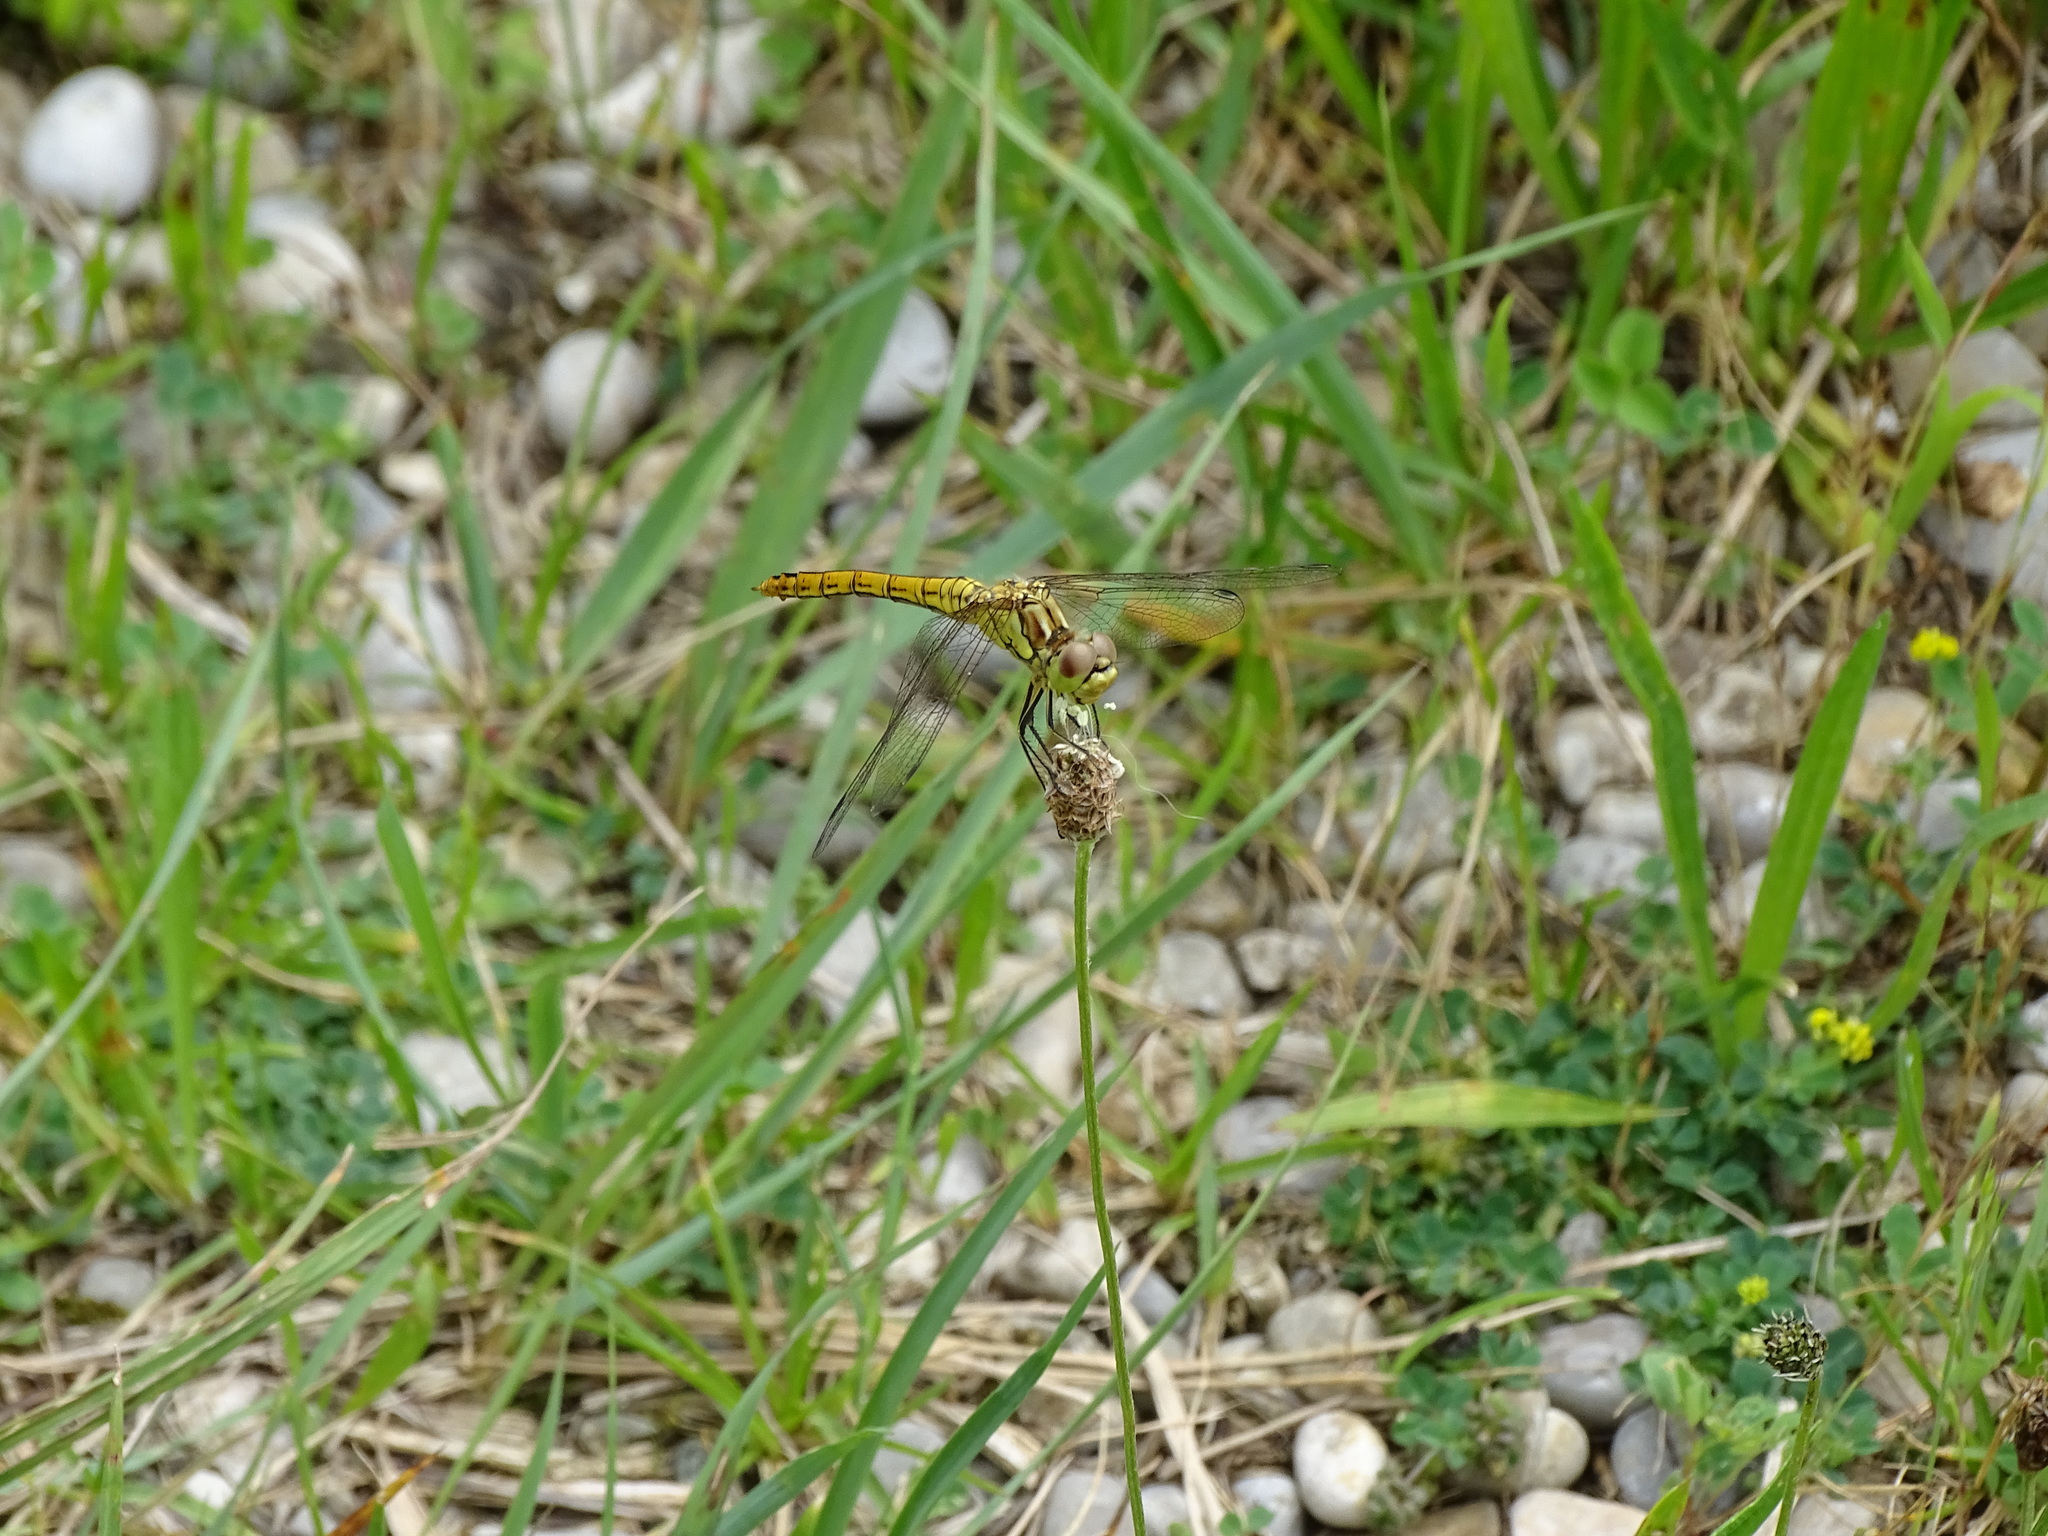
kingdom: Animalia
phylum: Arthropoda
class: Insecta
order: Odonata
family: Libellulidae
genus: Sympetrum
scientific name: Sympetrum vulgatum
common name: Vagrant darter
